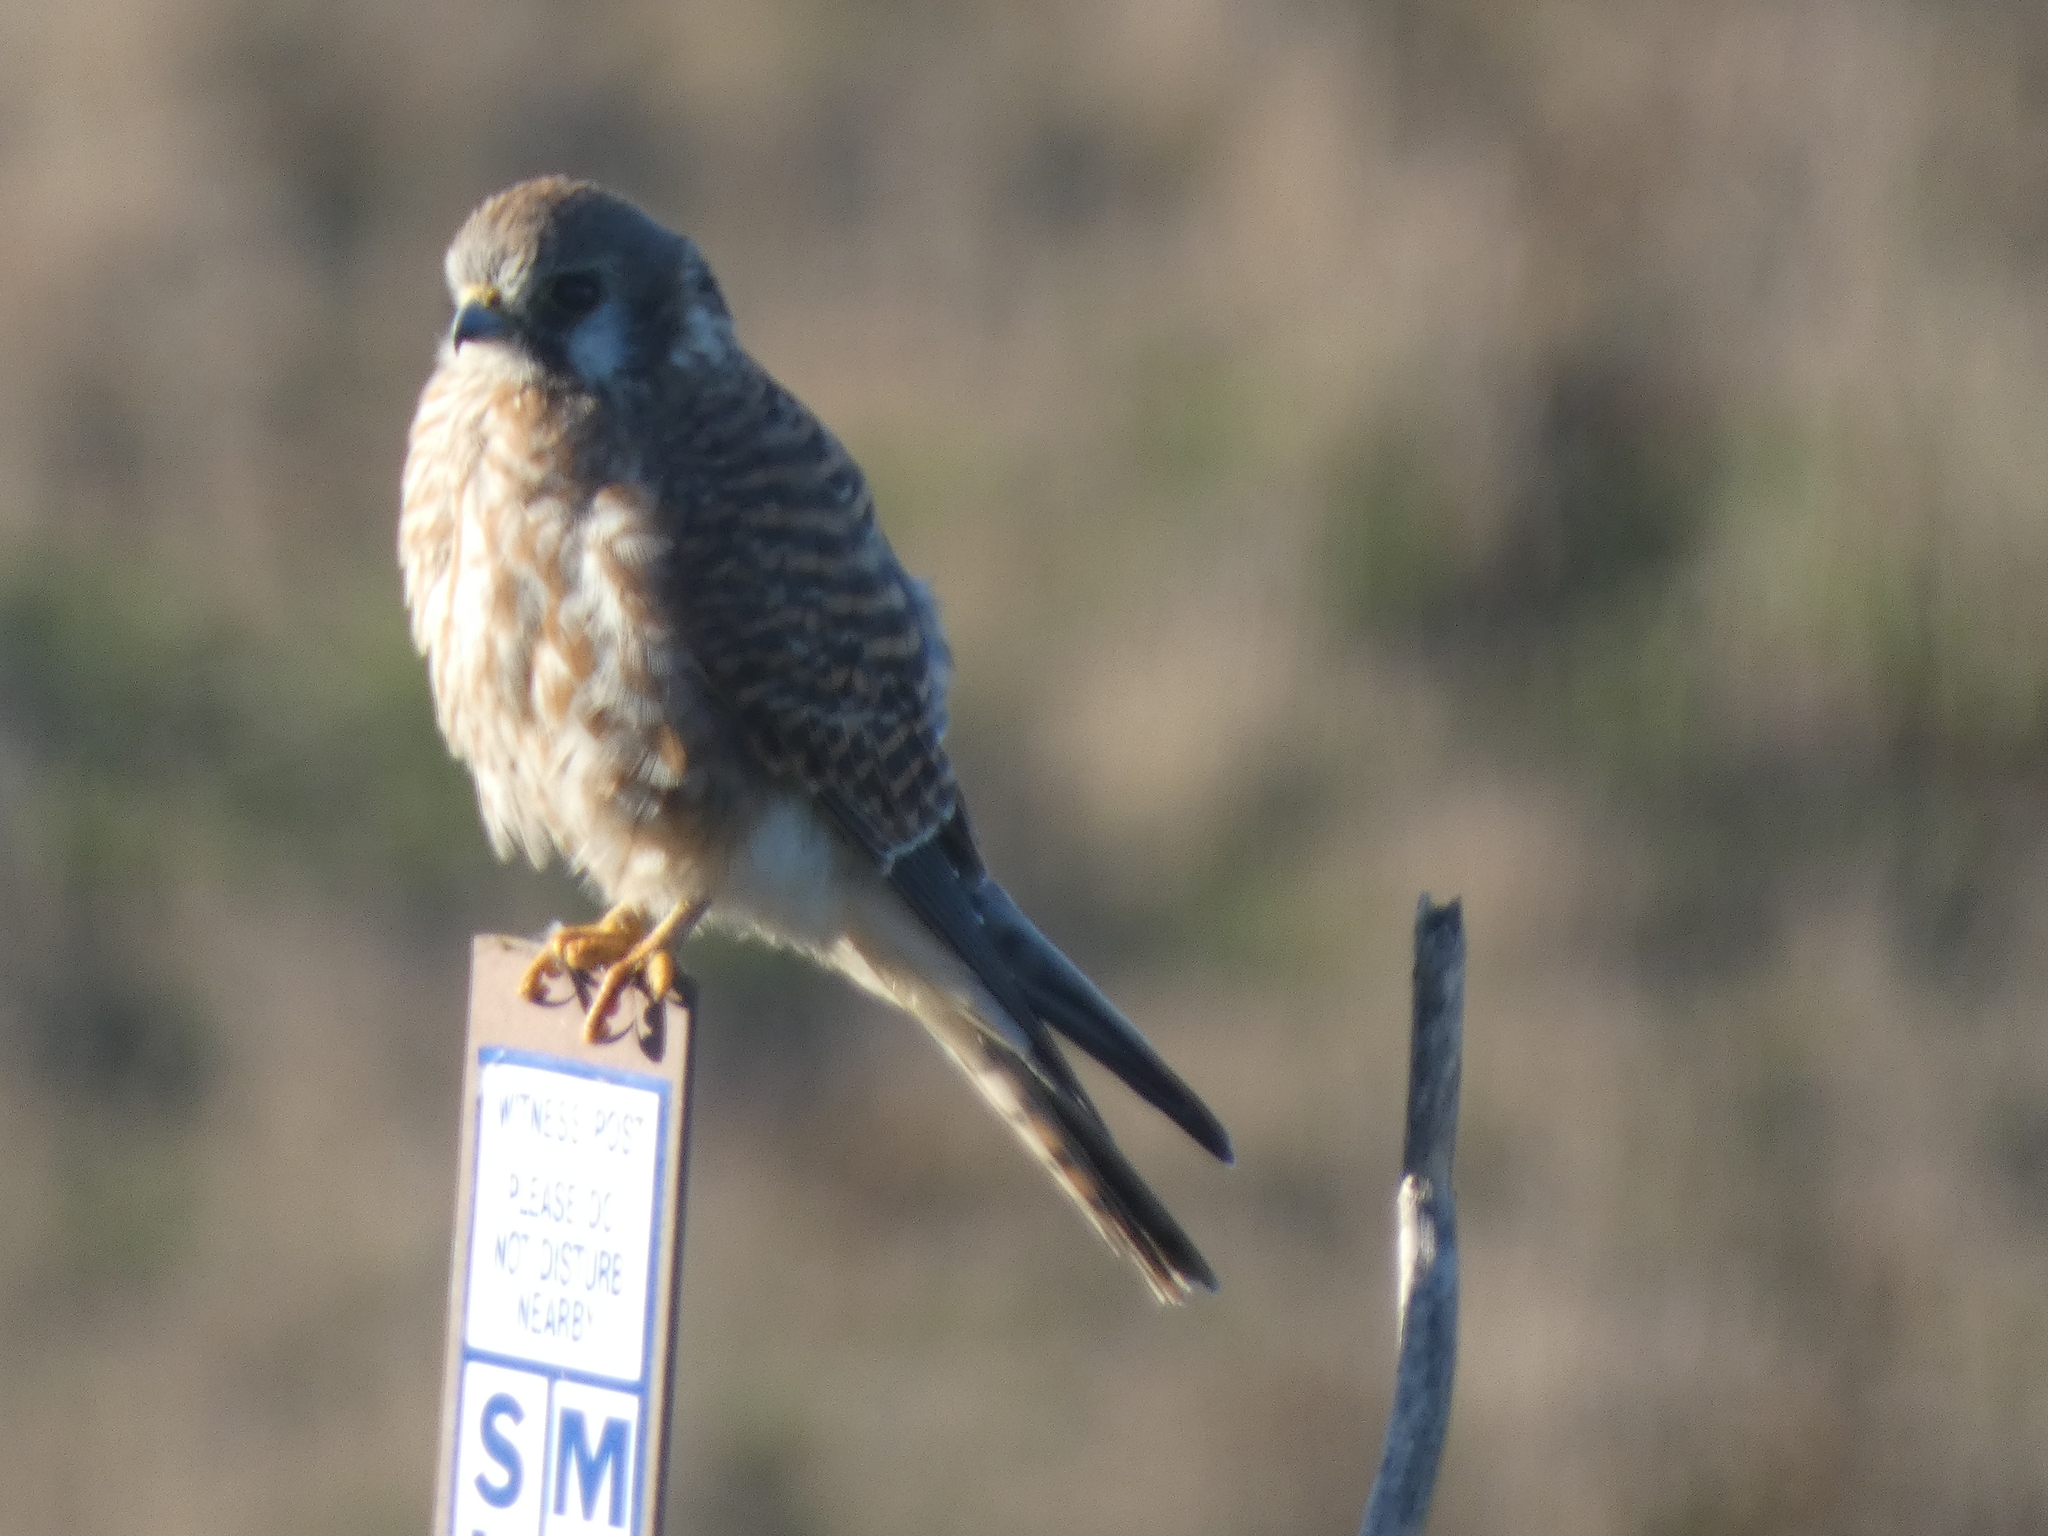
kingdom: Animalia
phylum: Chordata
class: Aves
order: Falconiformes
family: Falconidae
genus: Falco
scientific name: Falco sparverius
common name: American kestrel
